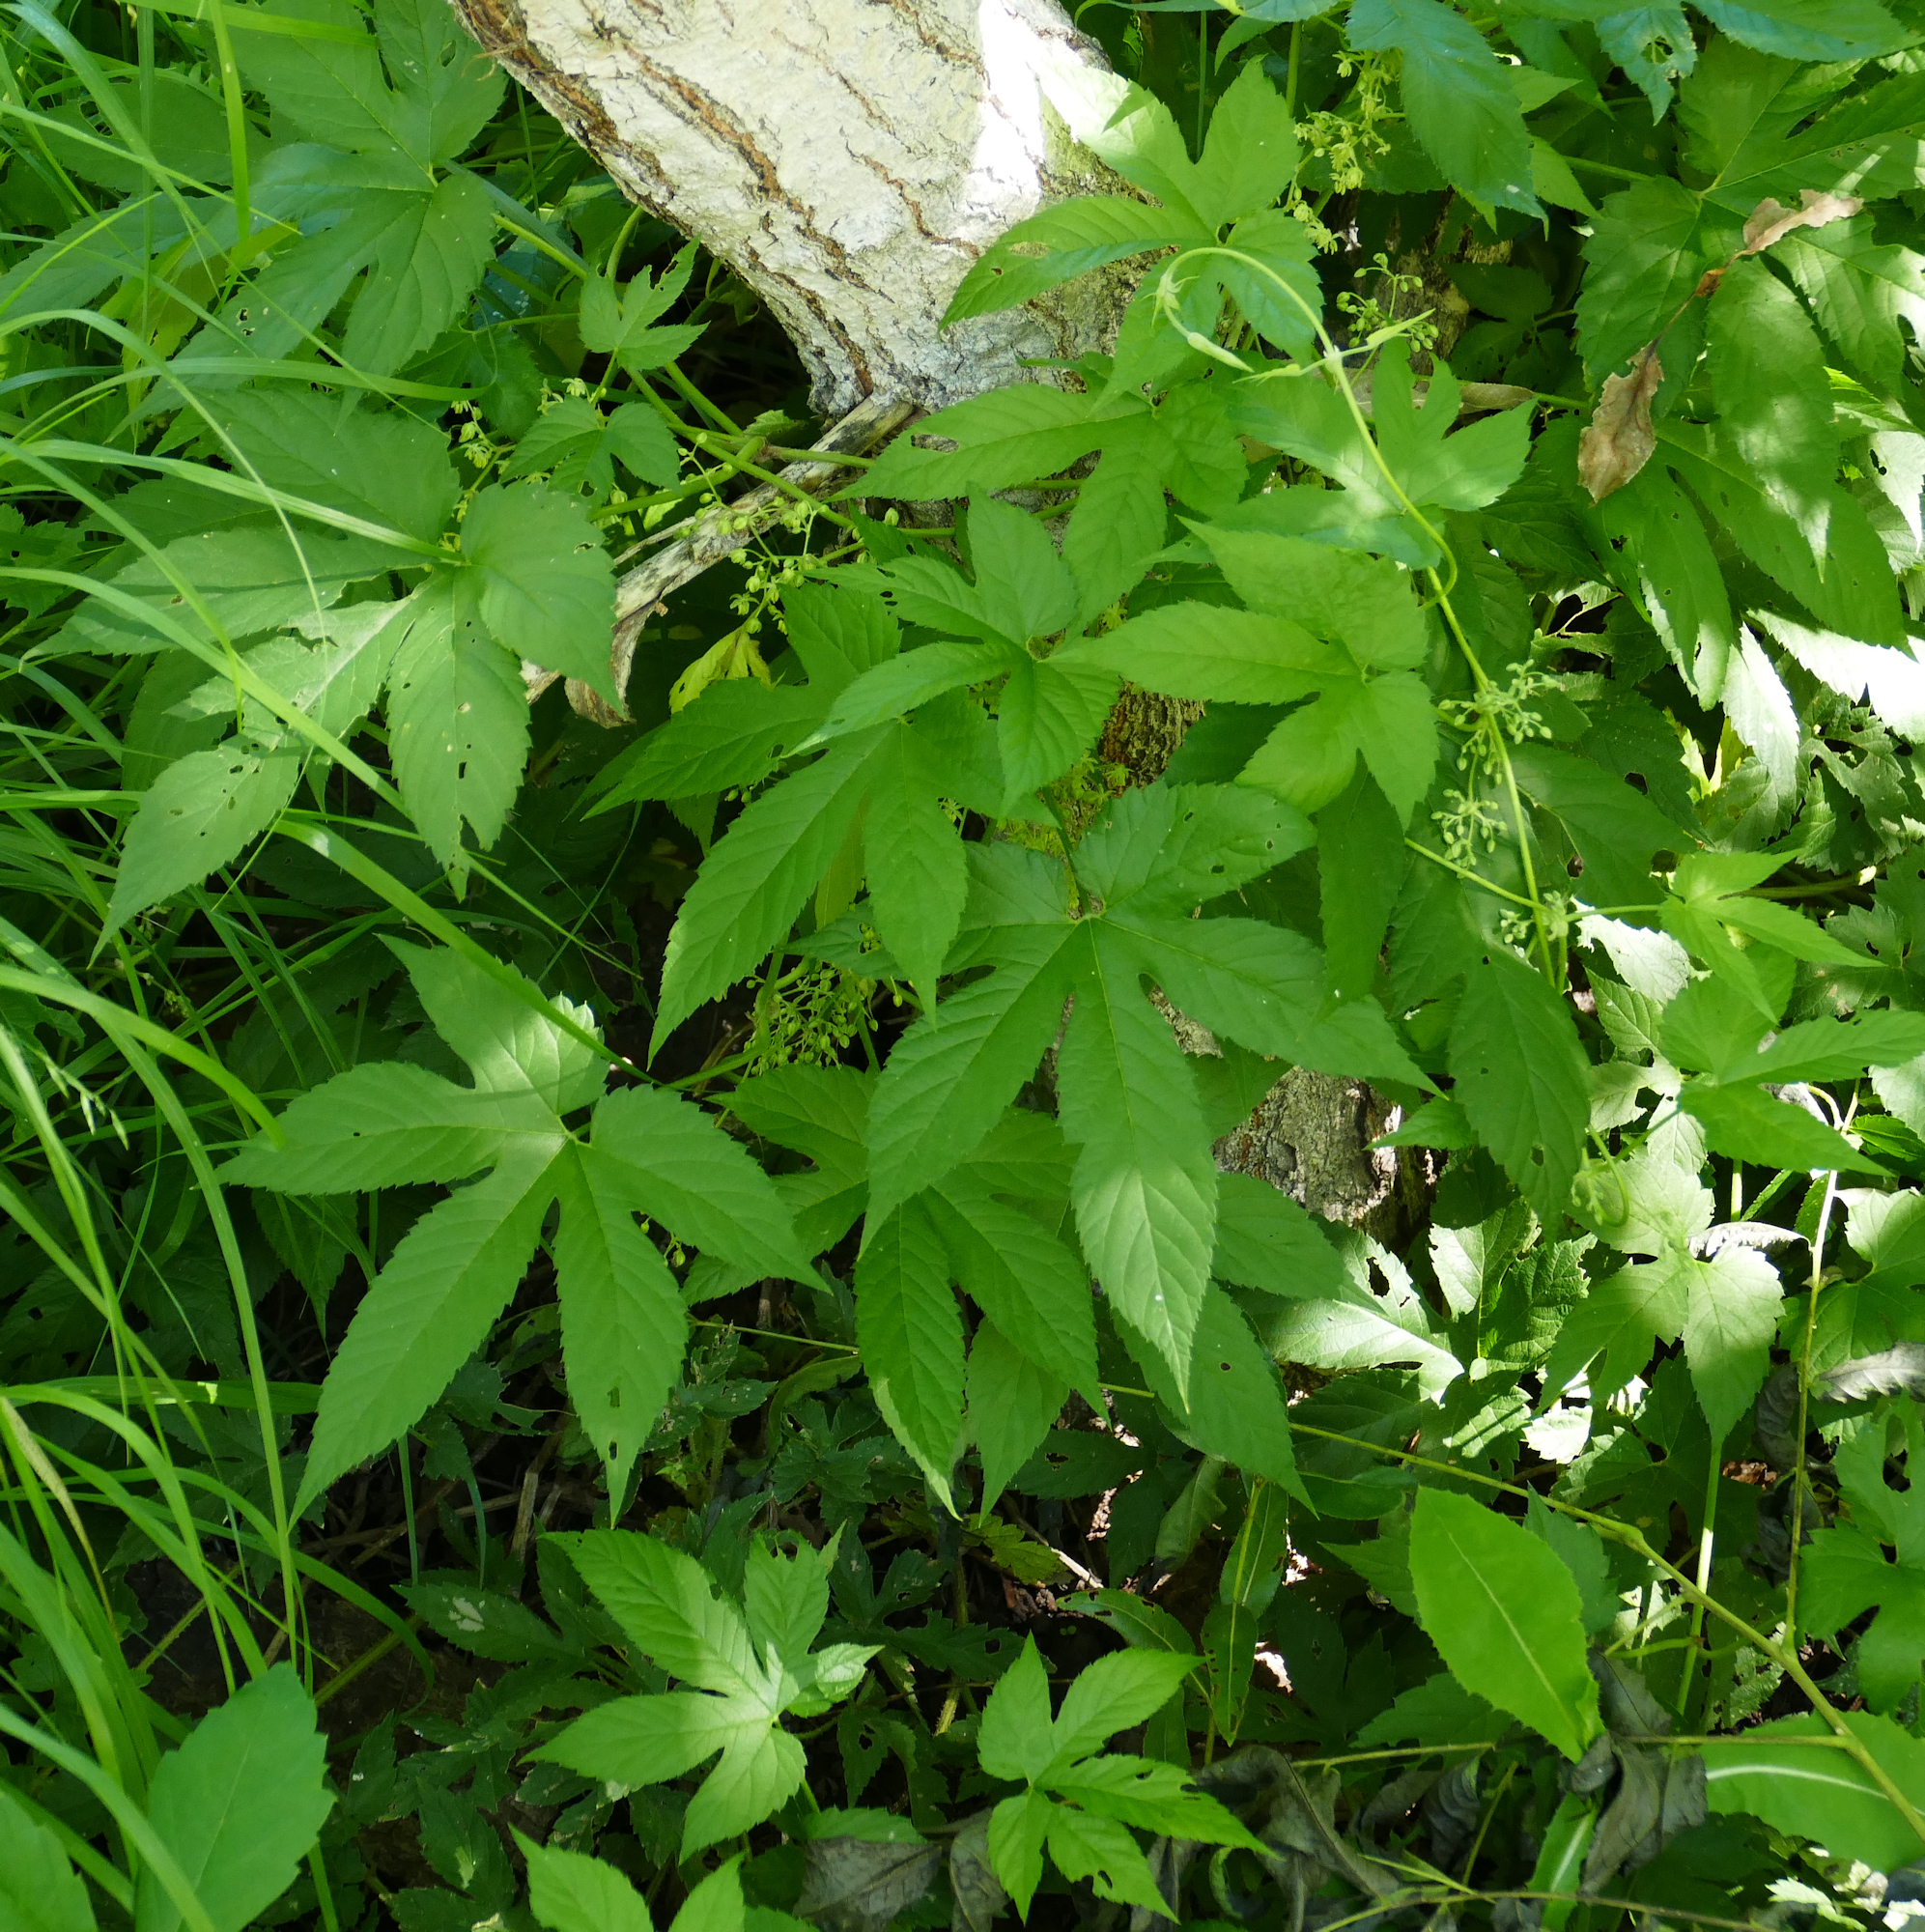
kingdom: Plantae
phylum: Tracheophyta
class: Magnoliopsida
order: Rosales
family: Cannabaceae
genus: Humulus
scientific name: Humulus lupulus
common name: Hop
